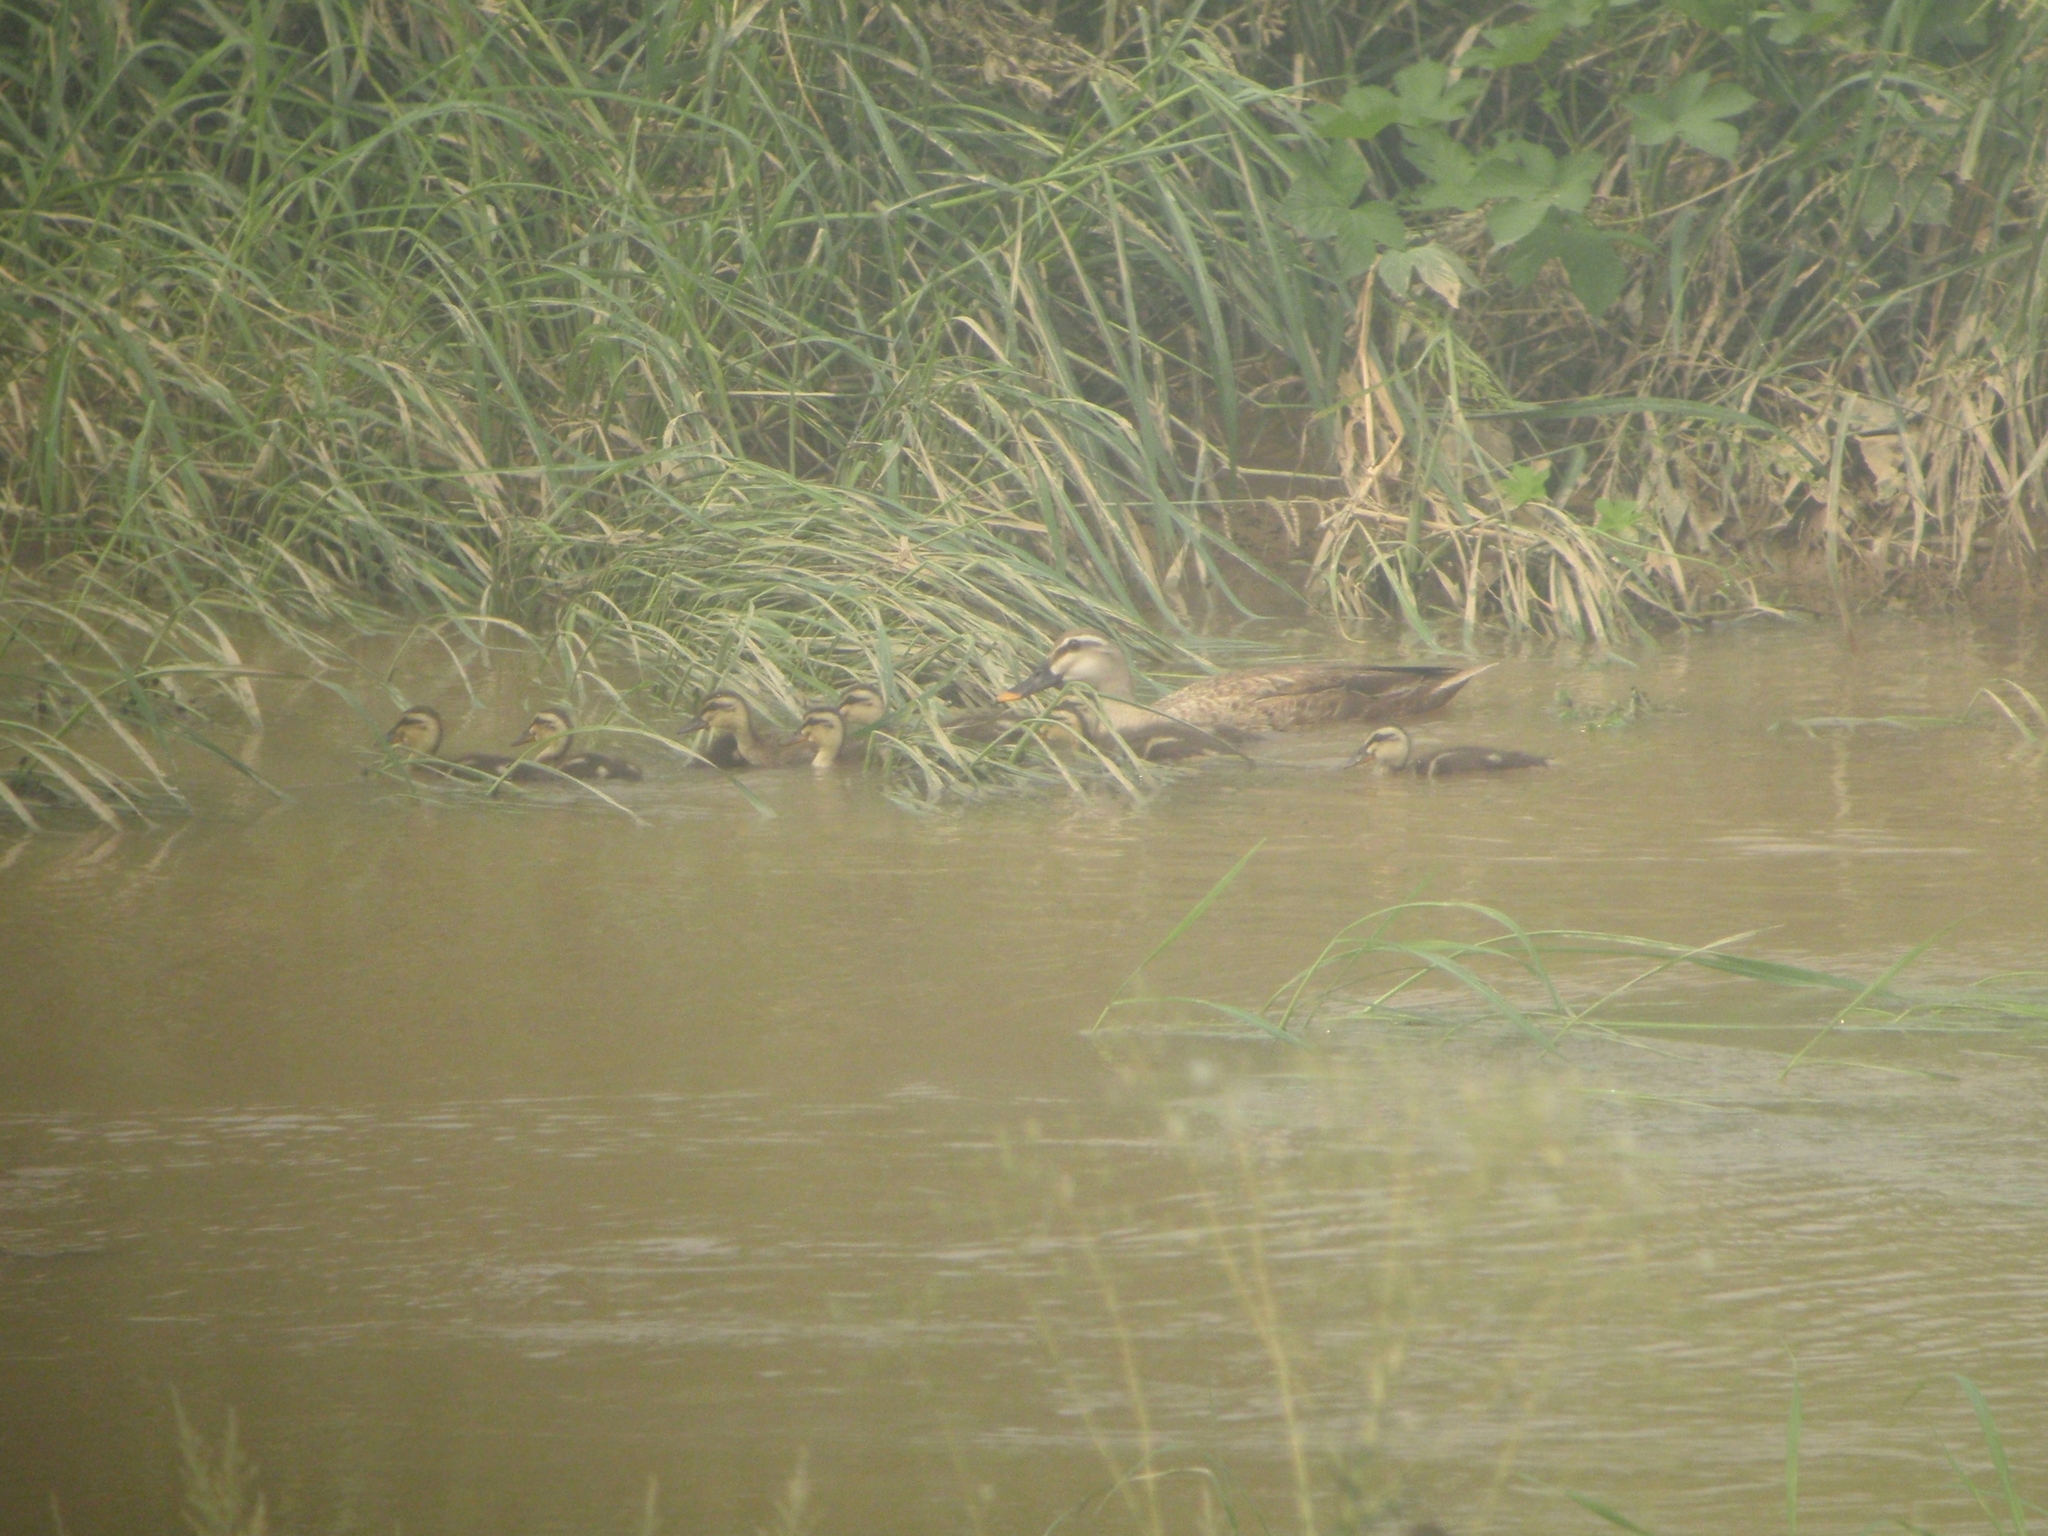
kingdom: Animalia
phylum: Chordata
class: Aves
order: Anseriformes
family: Anatidae
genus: Anas
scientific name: Anas zonorhyncha
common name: Eastern spot-billed duck
